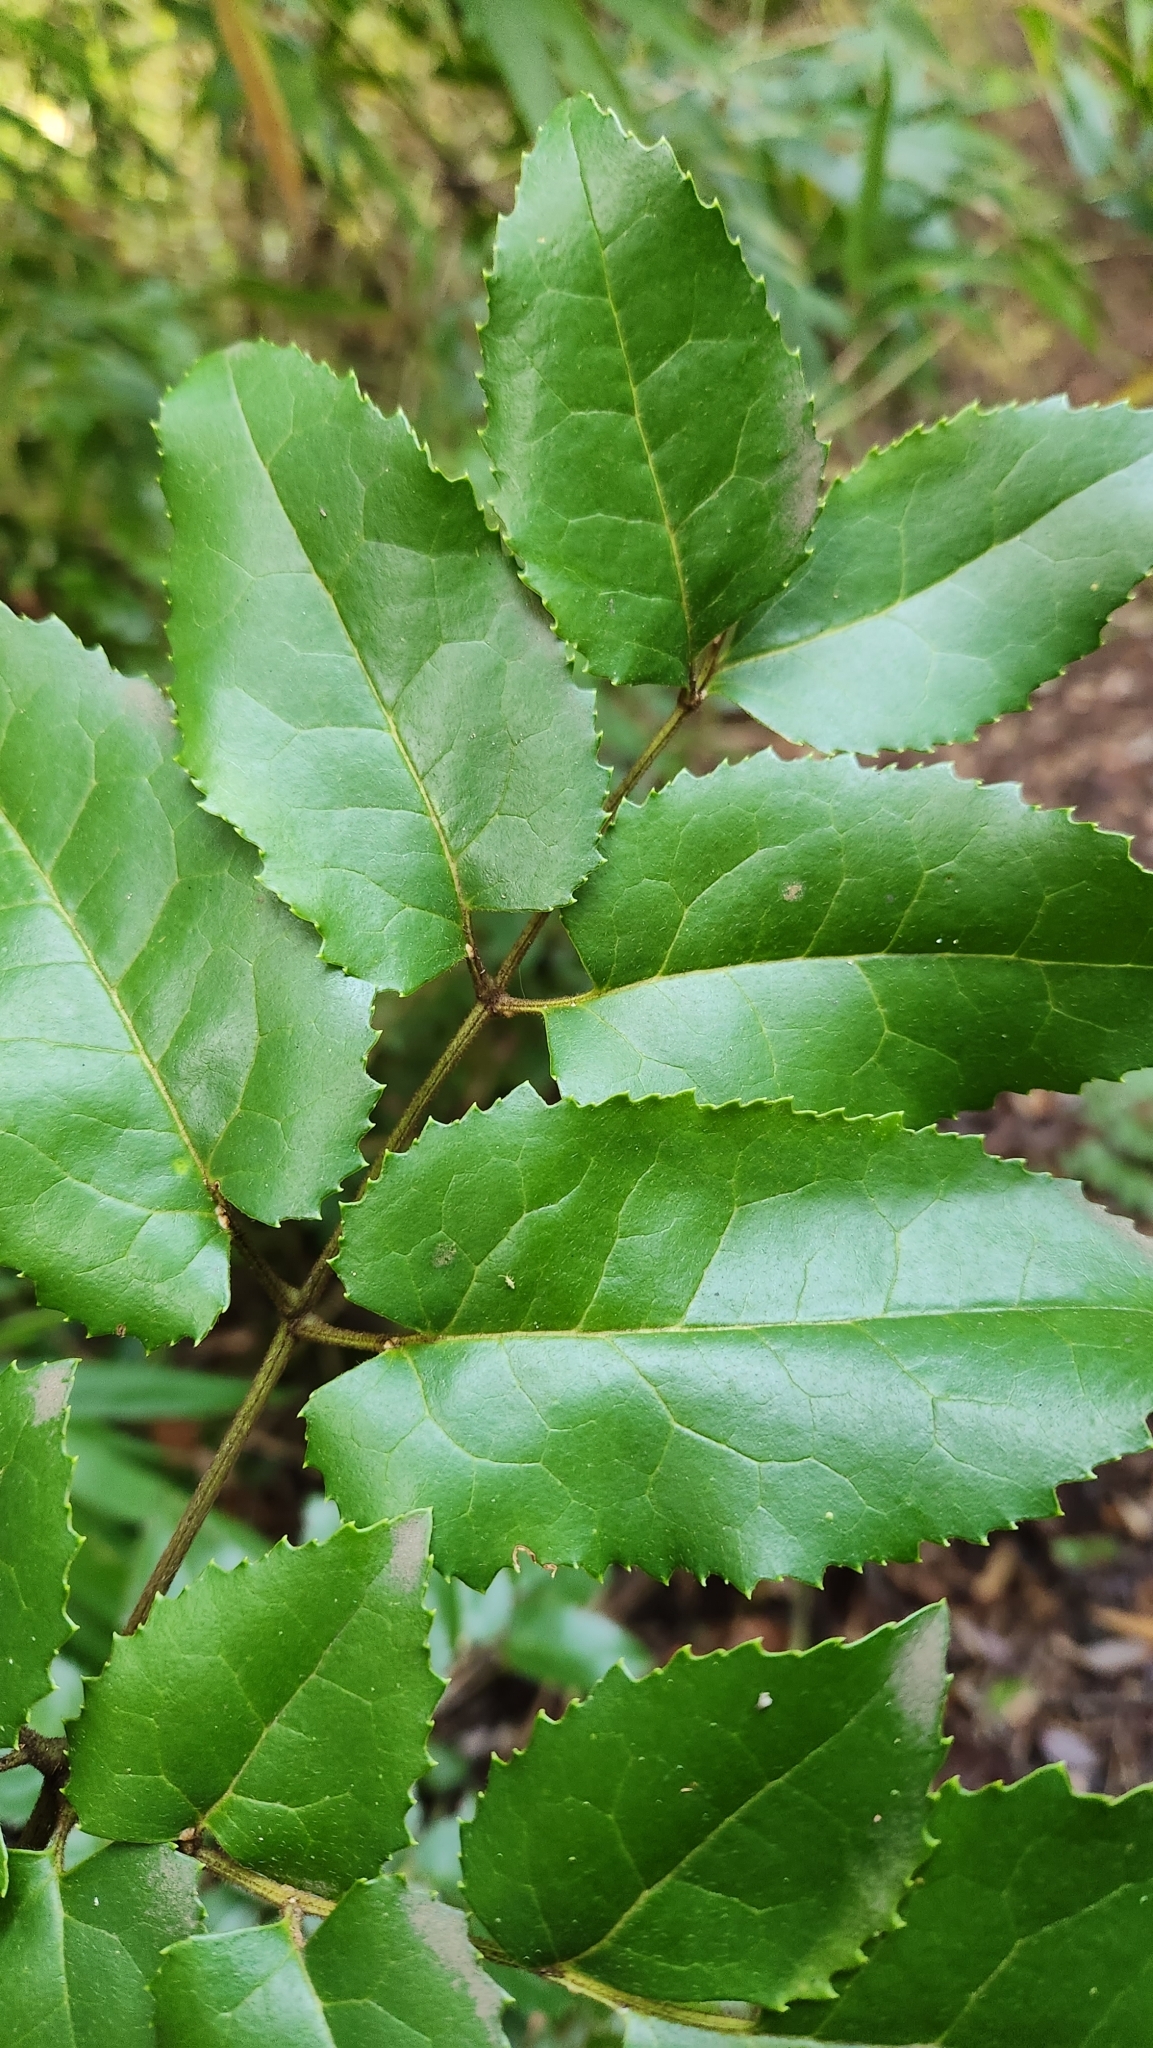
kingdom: Plantae
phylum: Tracheophyta
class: Magnoliopsida
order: Proteales
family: Proteaceae
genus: Gevuina
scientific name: Gevuina avellana
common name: Chilean hazel
